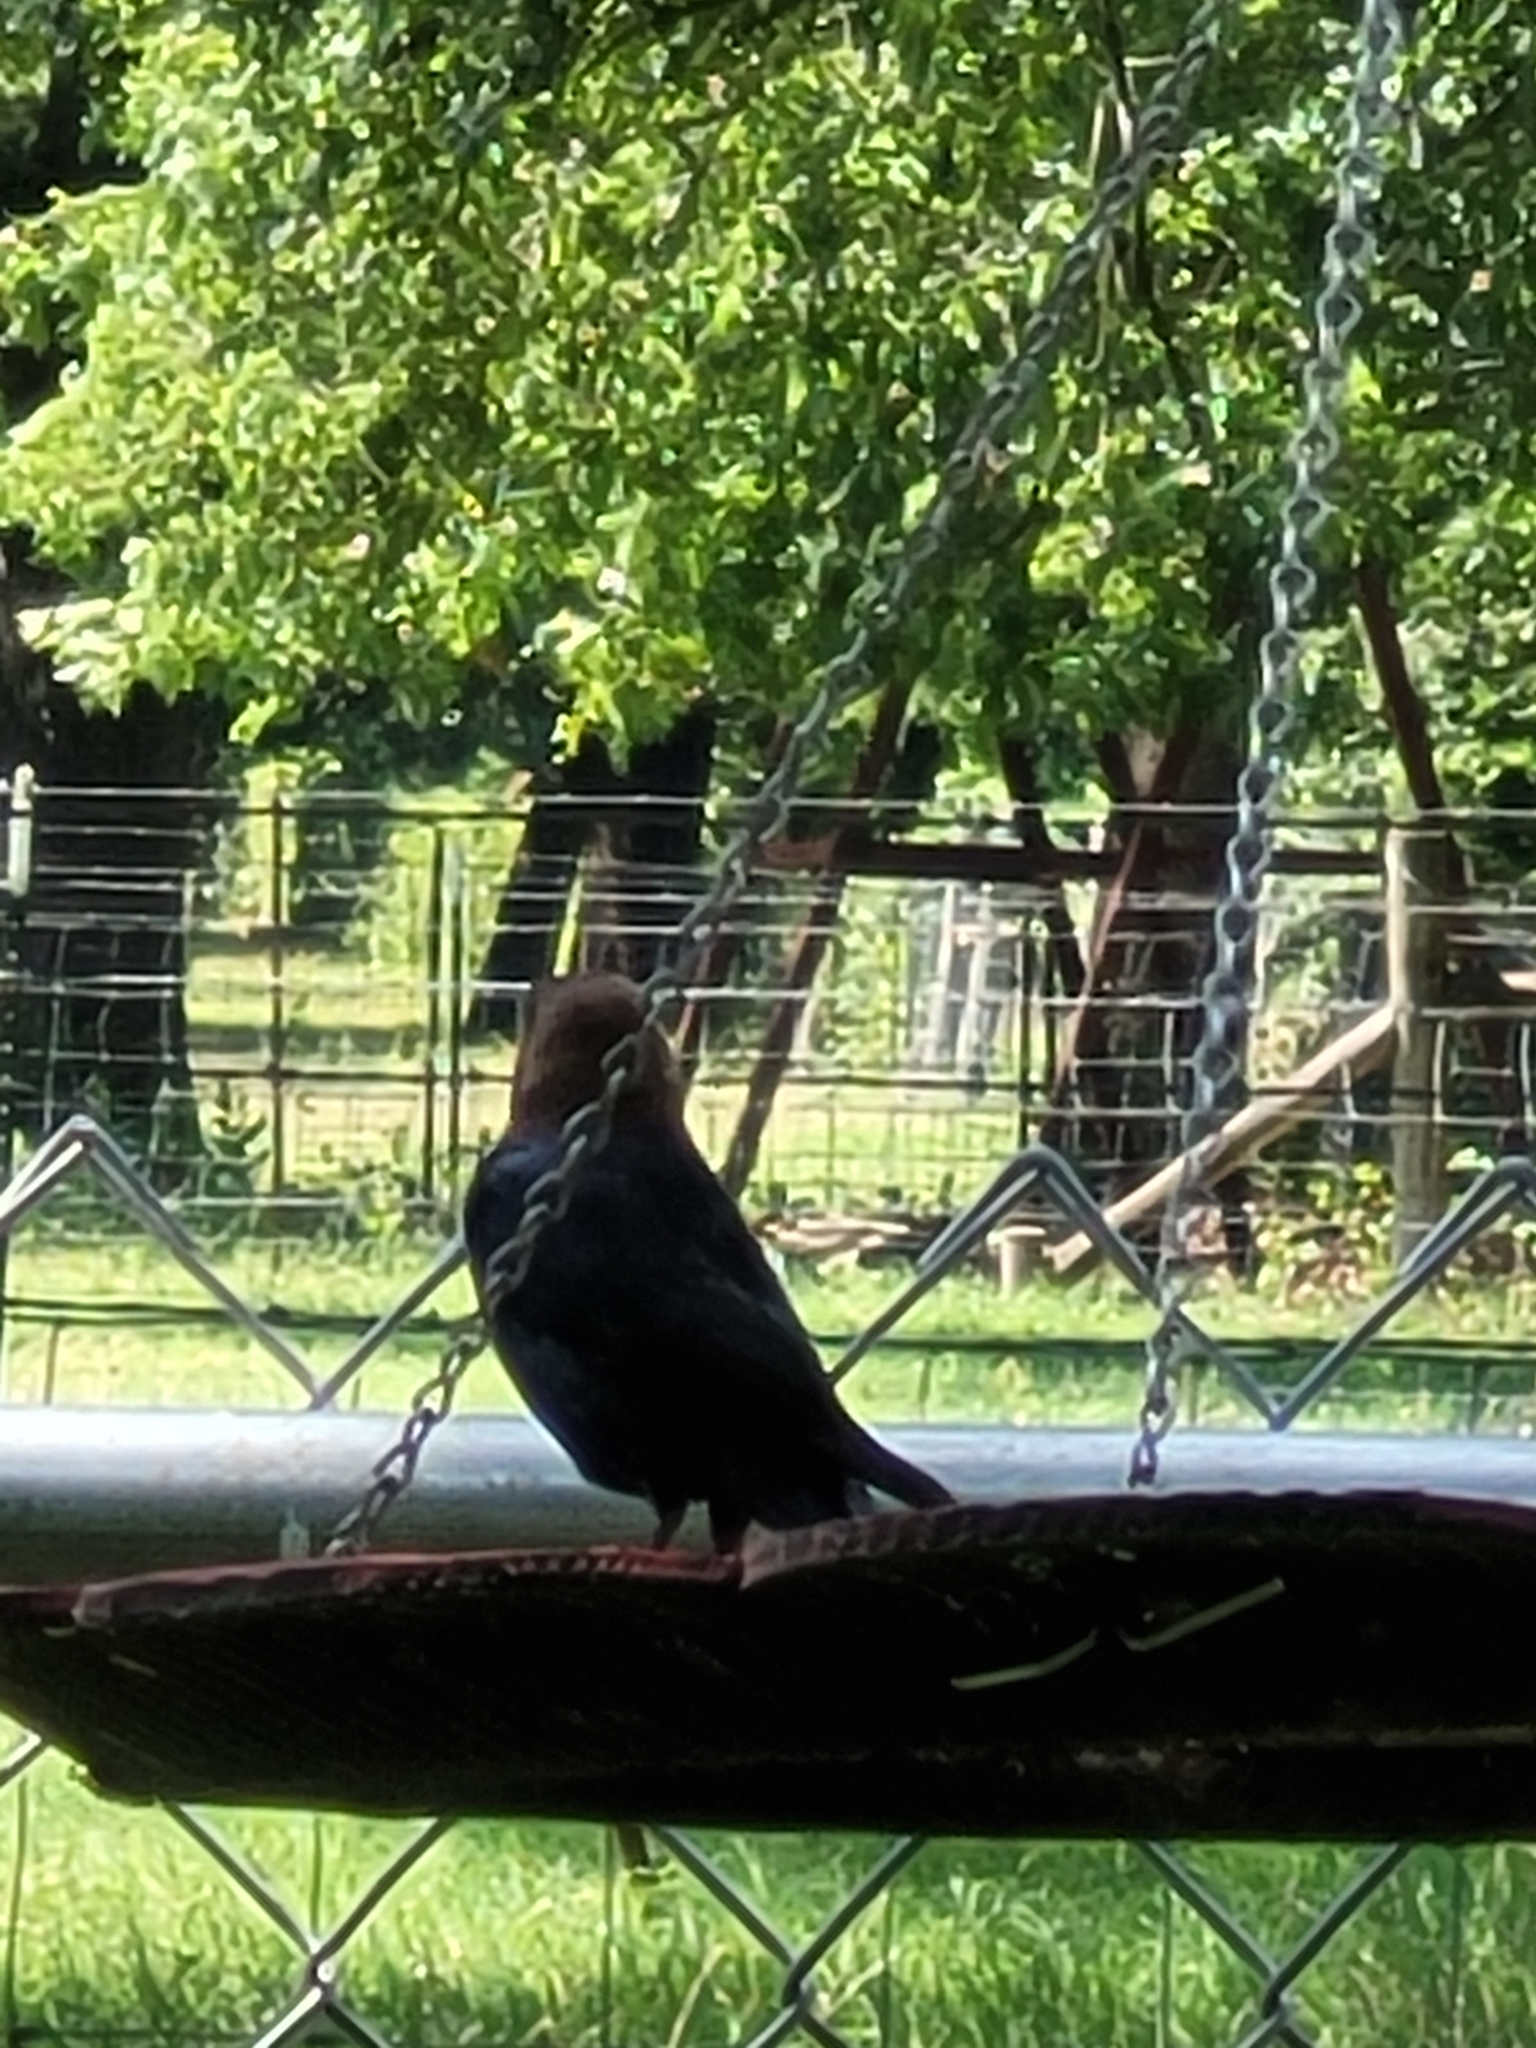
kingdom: Animalia
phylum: Chordata
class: Aves
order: Passeriformes
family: Icteridae
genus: Molothrus
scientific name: Molothrus ater
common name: Brown-headed cowbird
